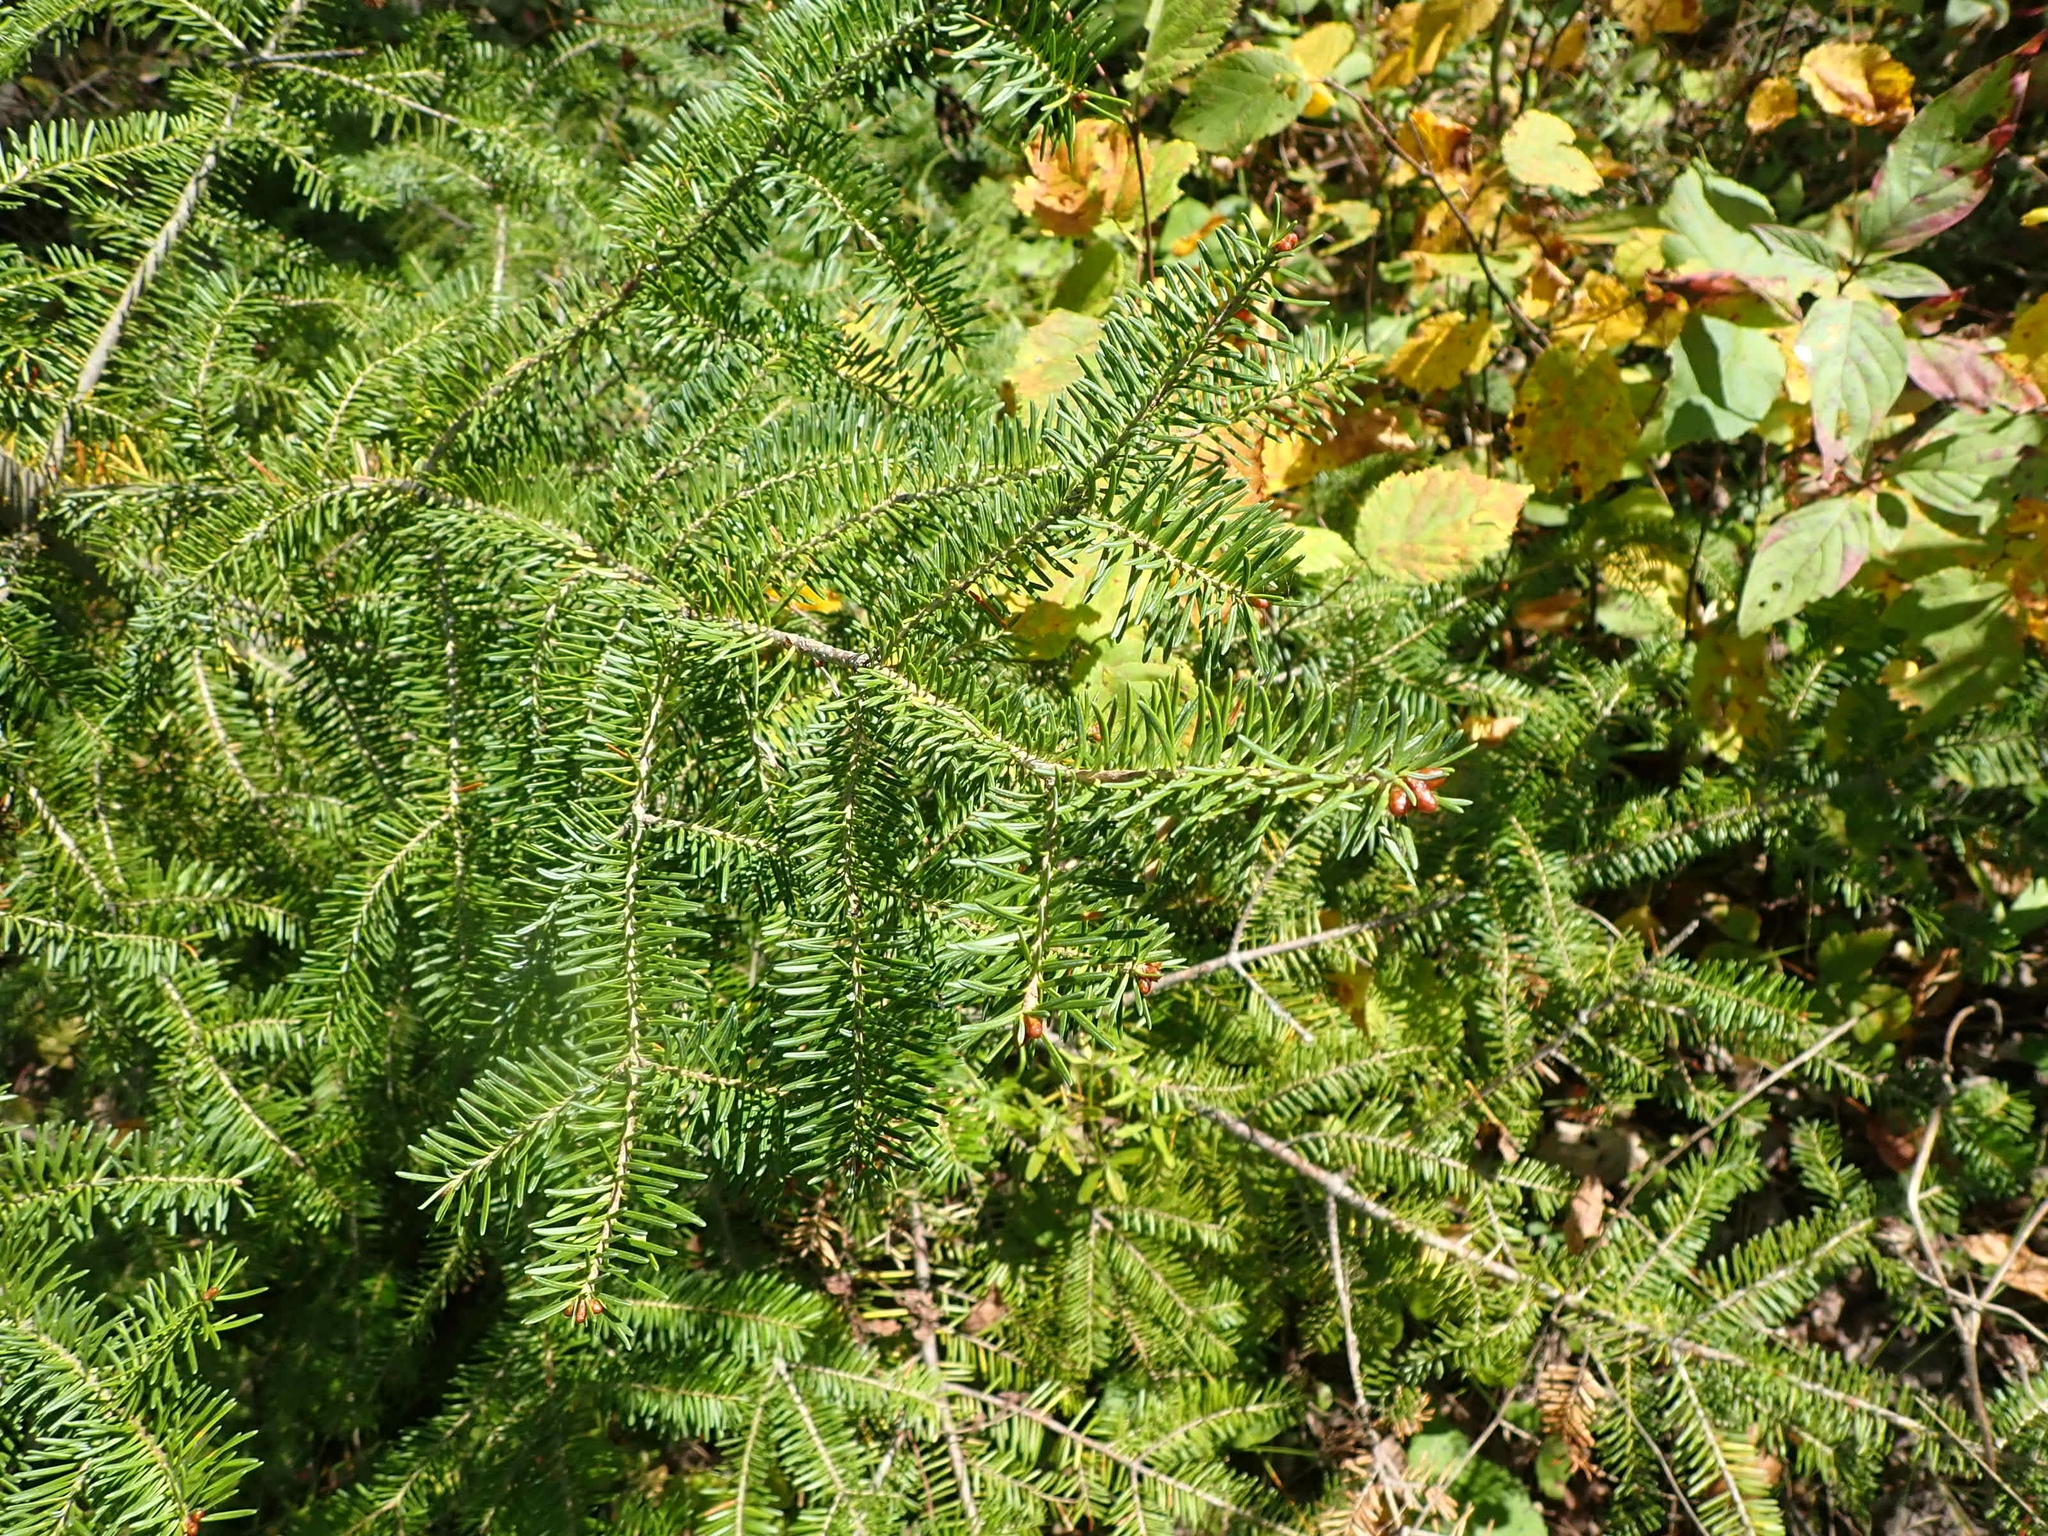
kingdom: Plantae
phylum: Tracheophyta
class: Pinopsida
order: Pinales
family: Pinaceae
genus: Abies
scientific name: Abies balsamea
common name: Balsam fir
